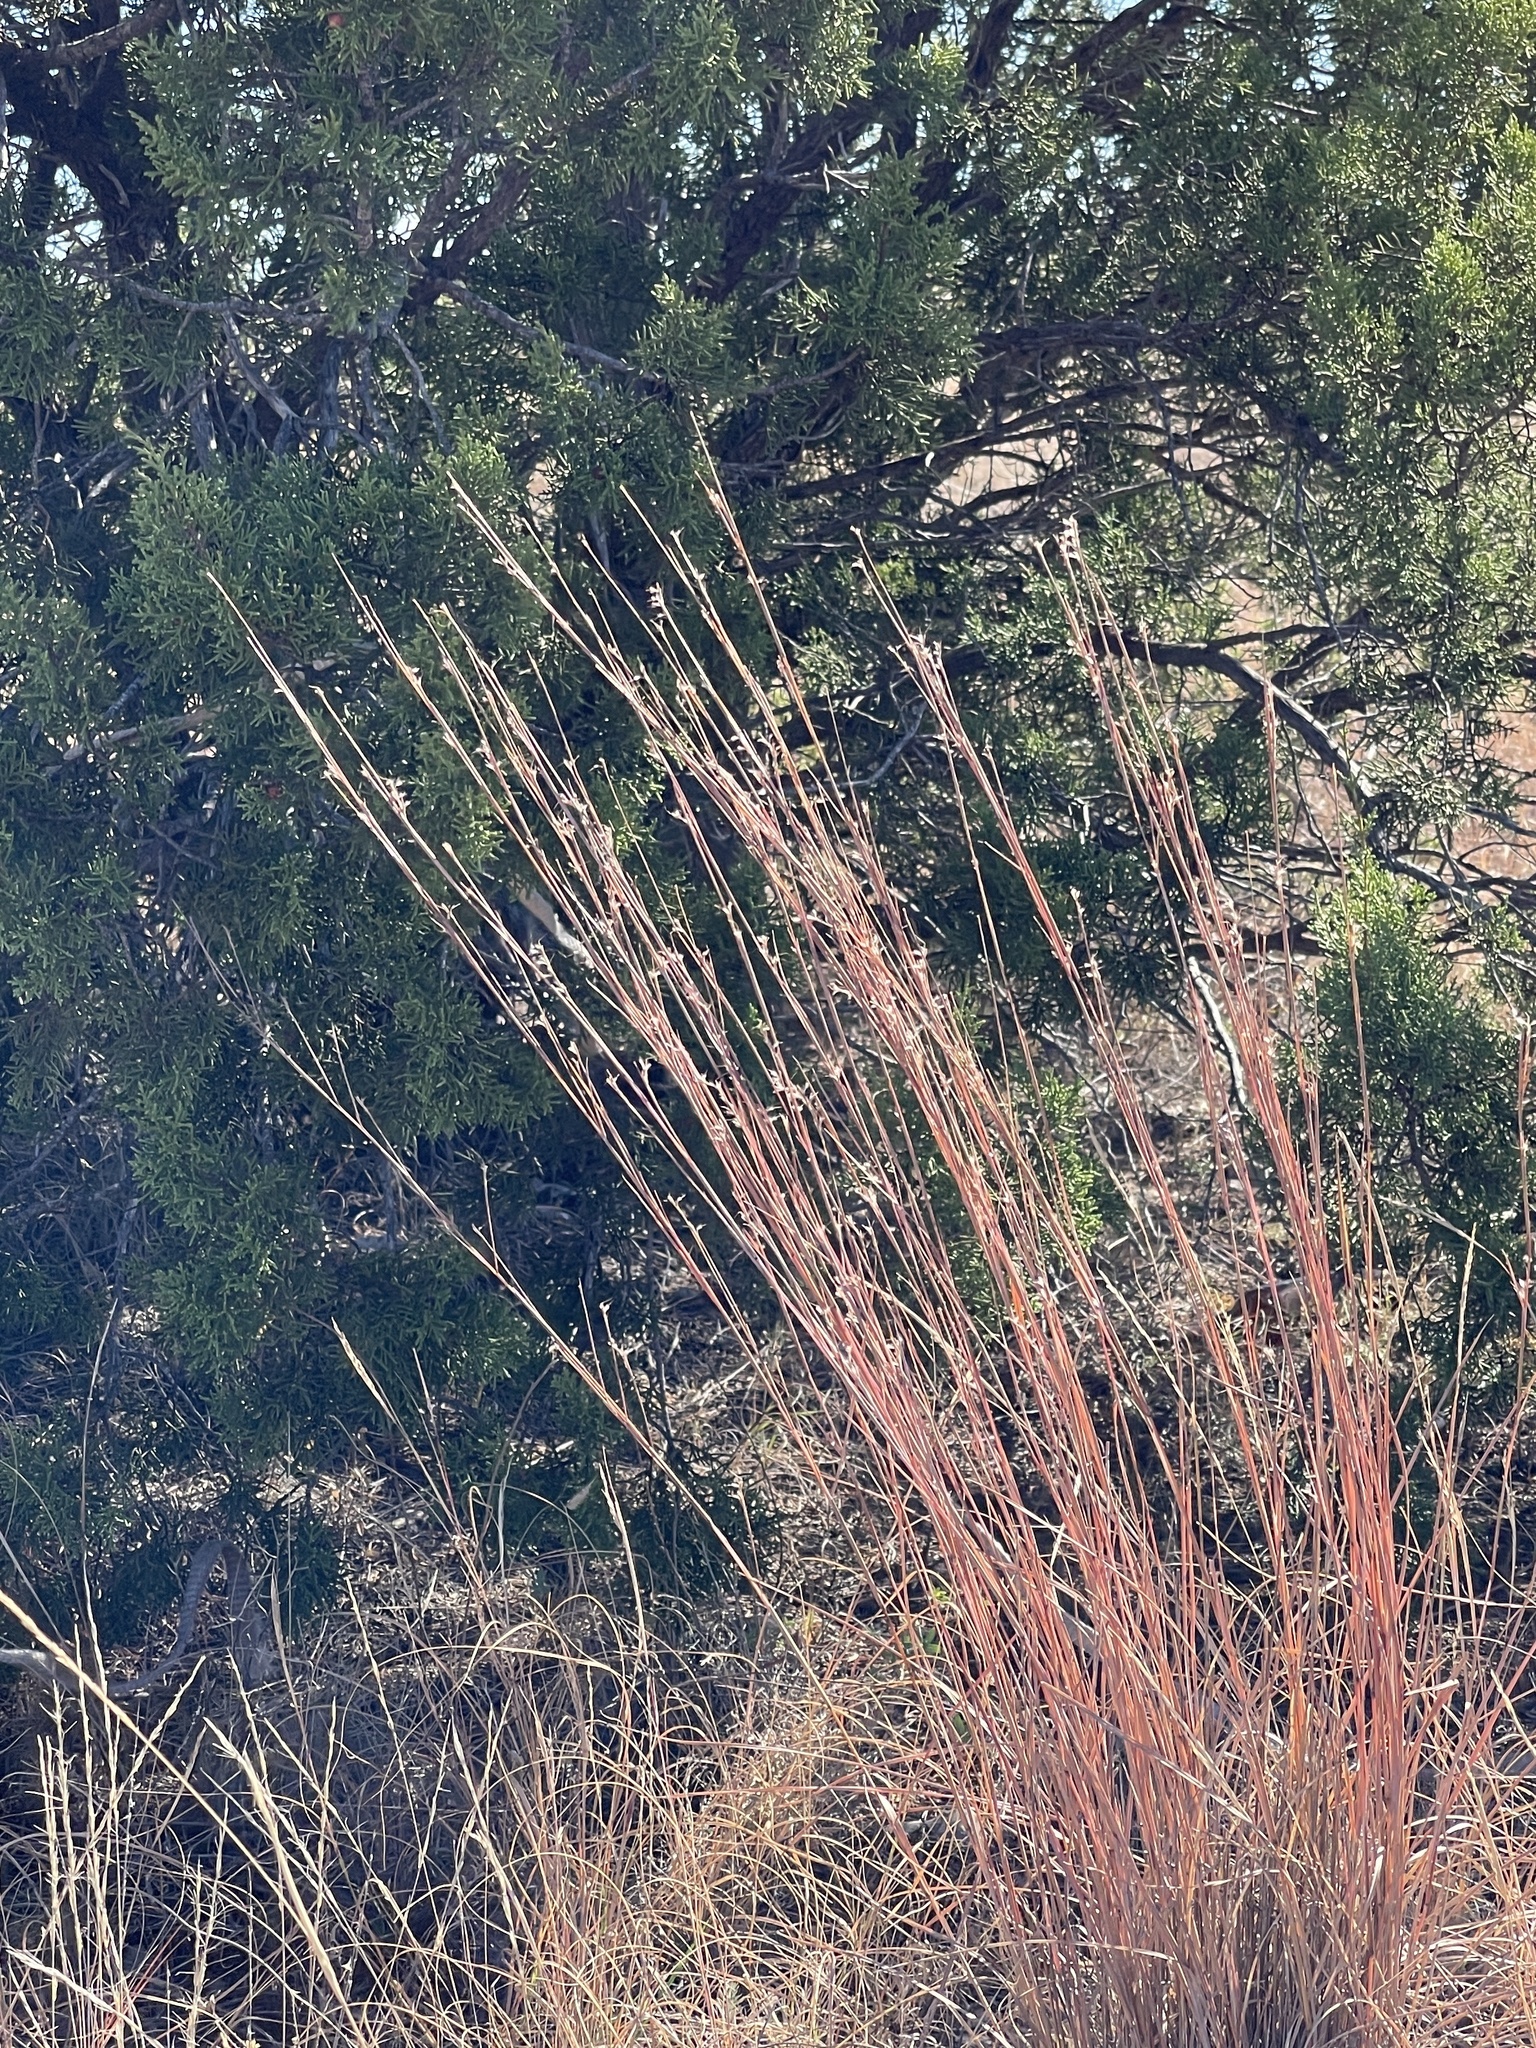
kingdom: Plantae
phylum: Tracheophyta
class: Liliopsida
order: Poales
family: Poaceae
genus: Schizachyrium
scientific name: Schizachyrium scoparium
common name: Little bluestem
